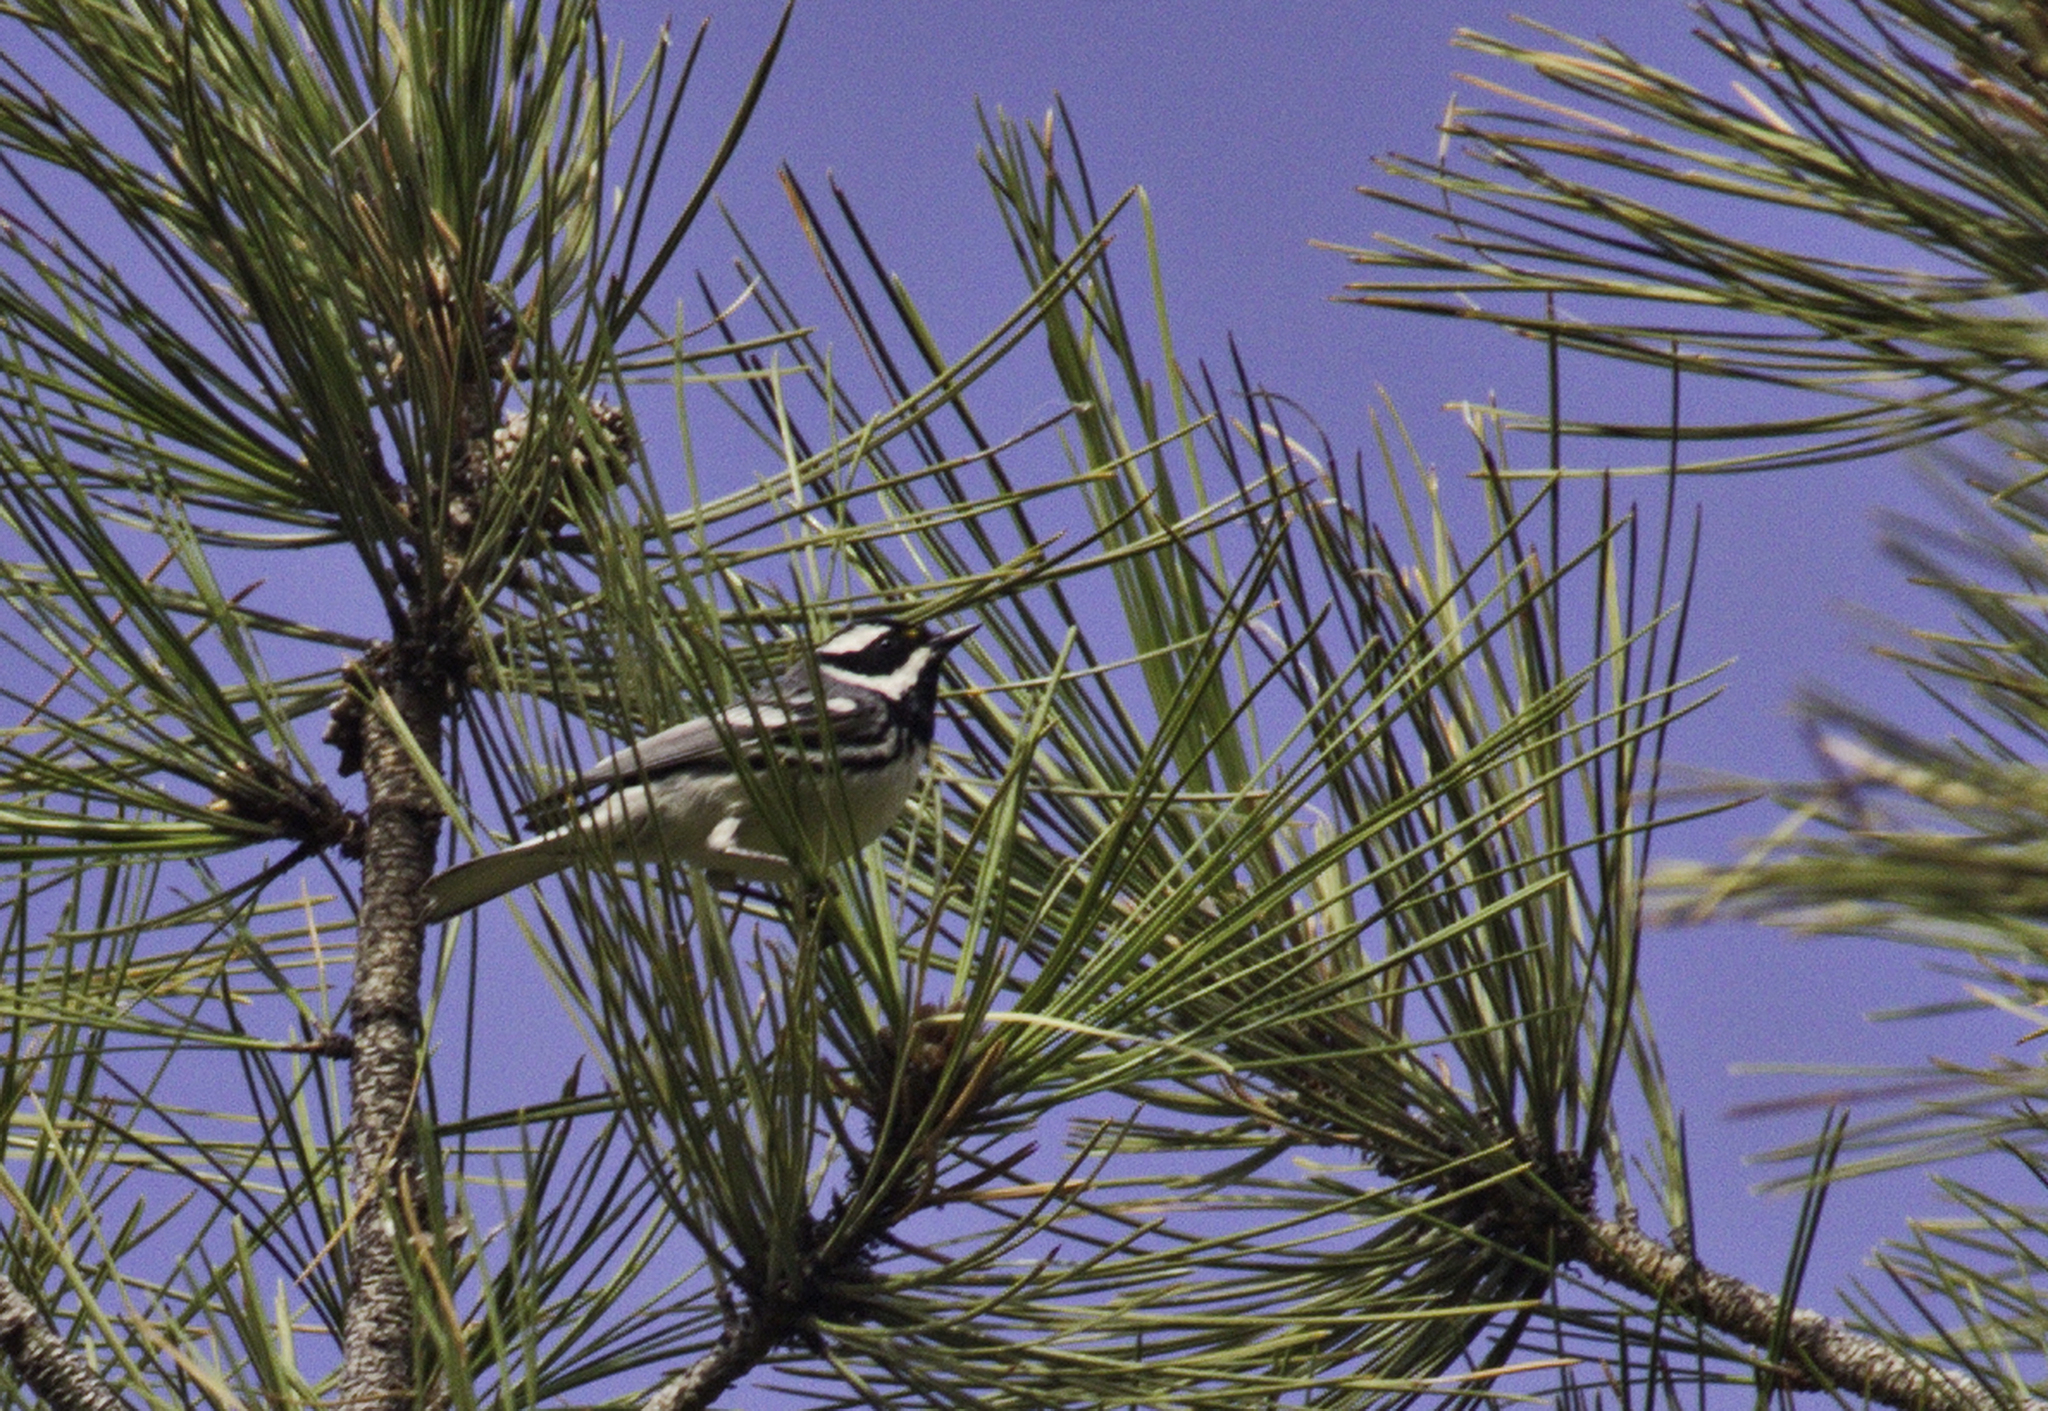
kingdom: Animalia
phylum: Chordata
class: Aves
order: Passeriformes
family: Parulidae
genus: Setophaga
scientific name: Setophaga nigrescens
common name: Black-throated gray warbler
